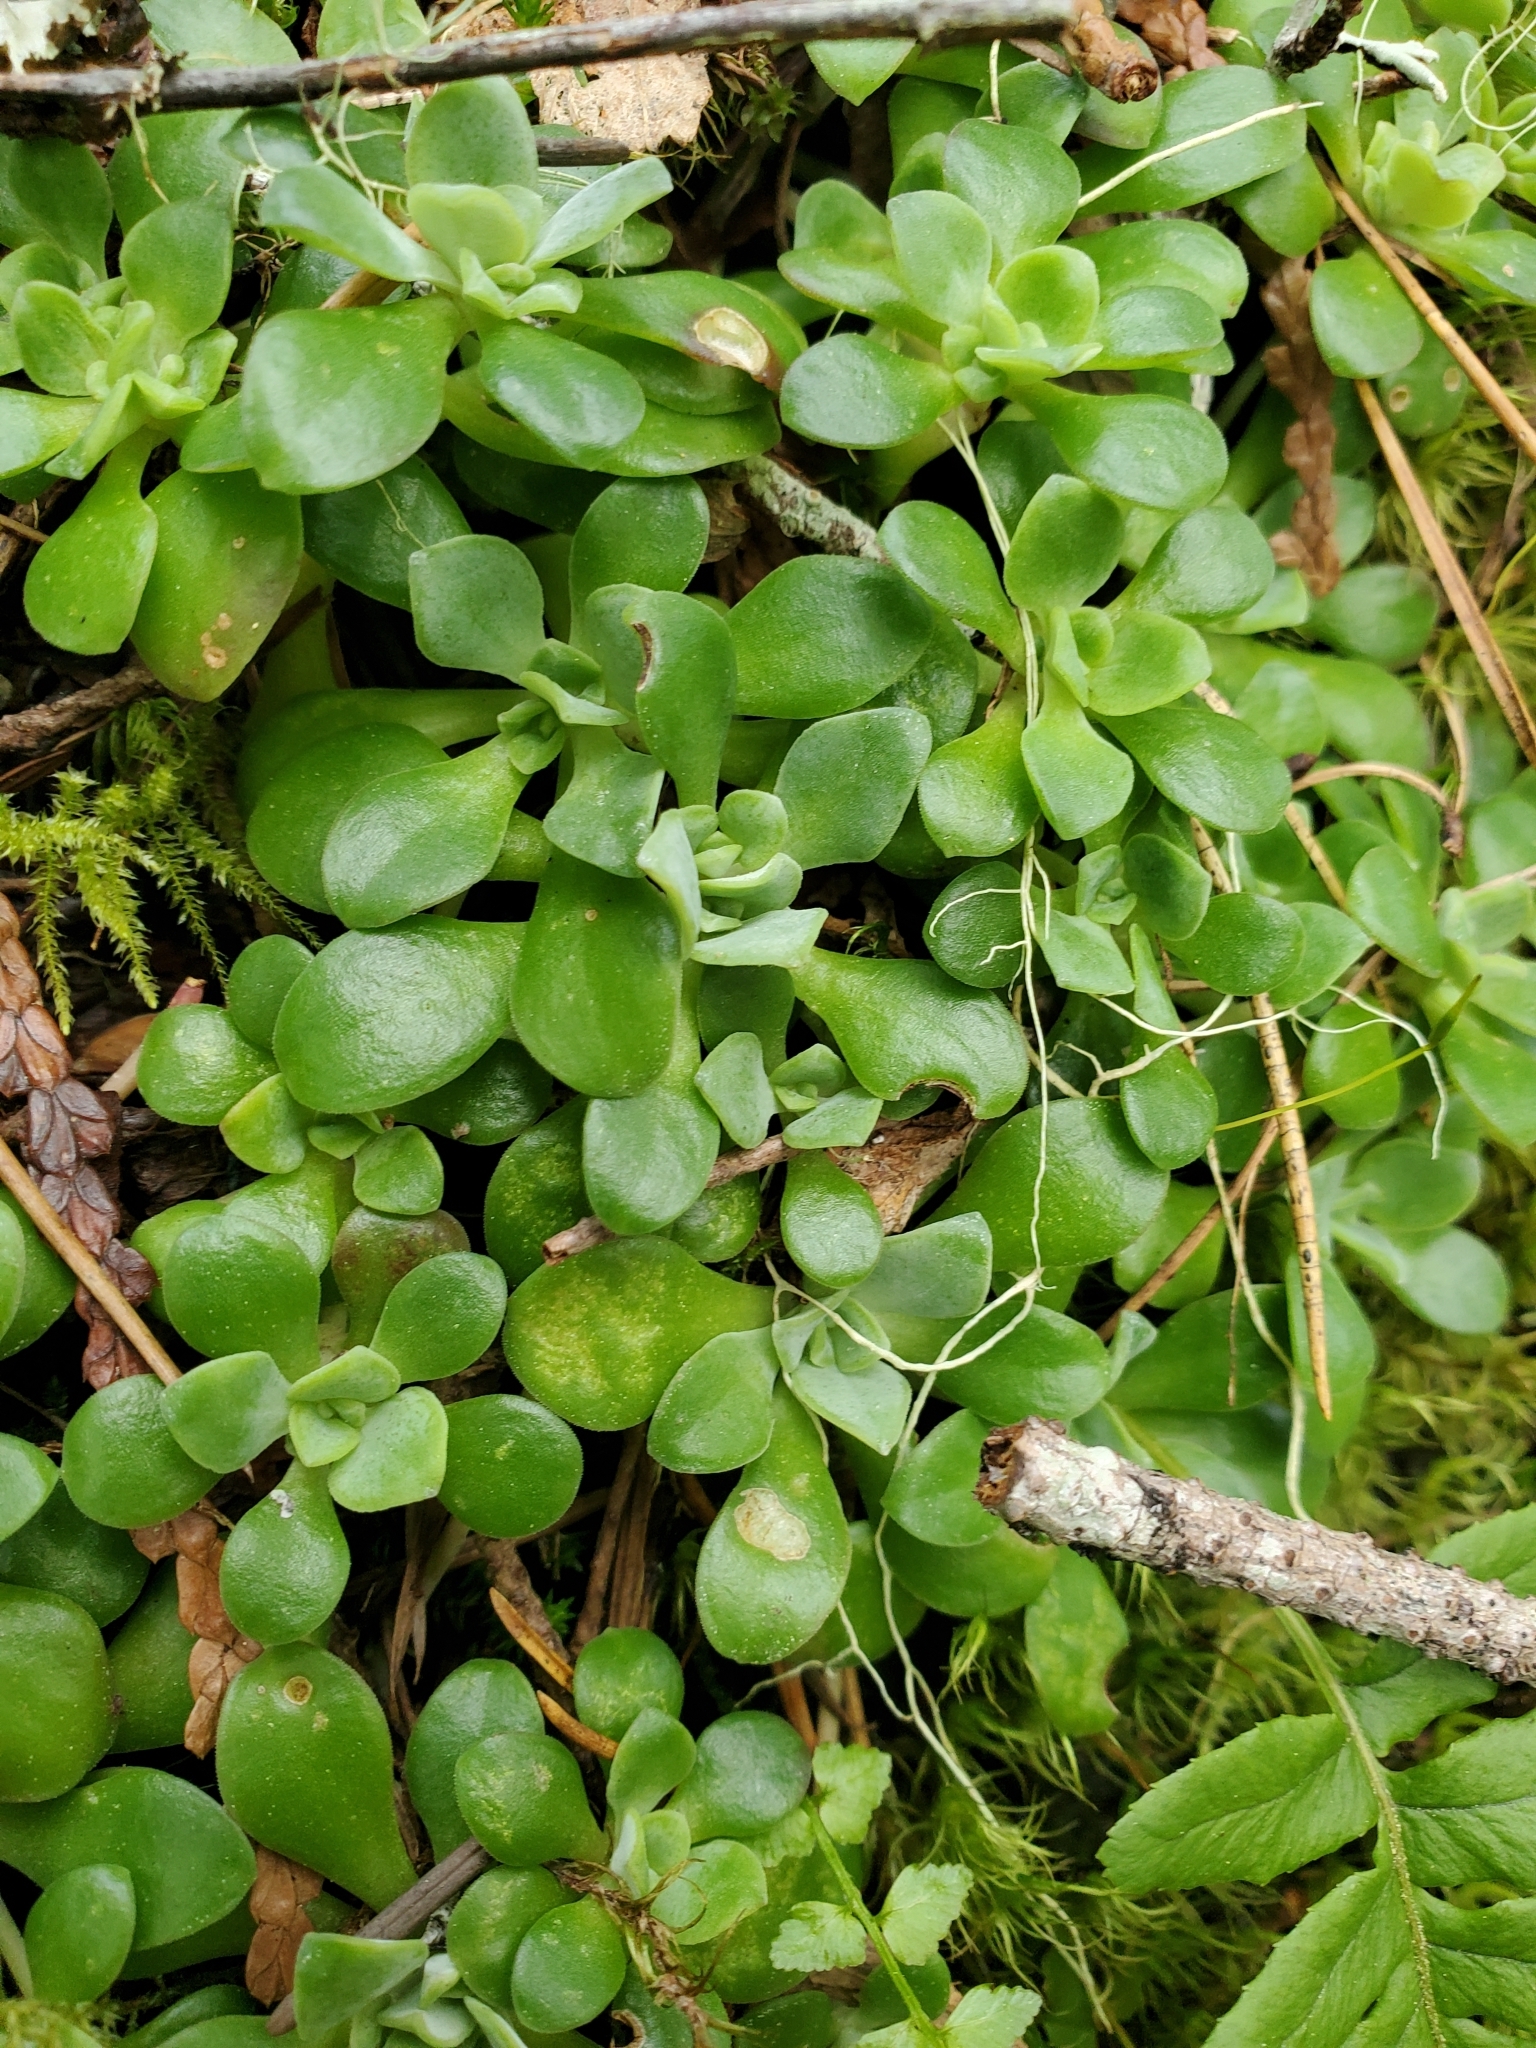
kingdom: Plantae
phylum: Tracheophyta
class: Magnoliopsida
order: Saxifragales
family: Crassulaceae
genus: Sedum
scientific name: Sedum spathulifolium
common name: Colorado stonecrop
